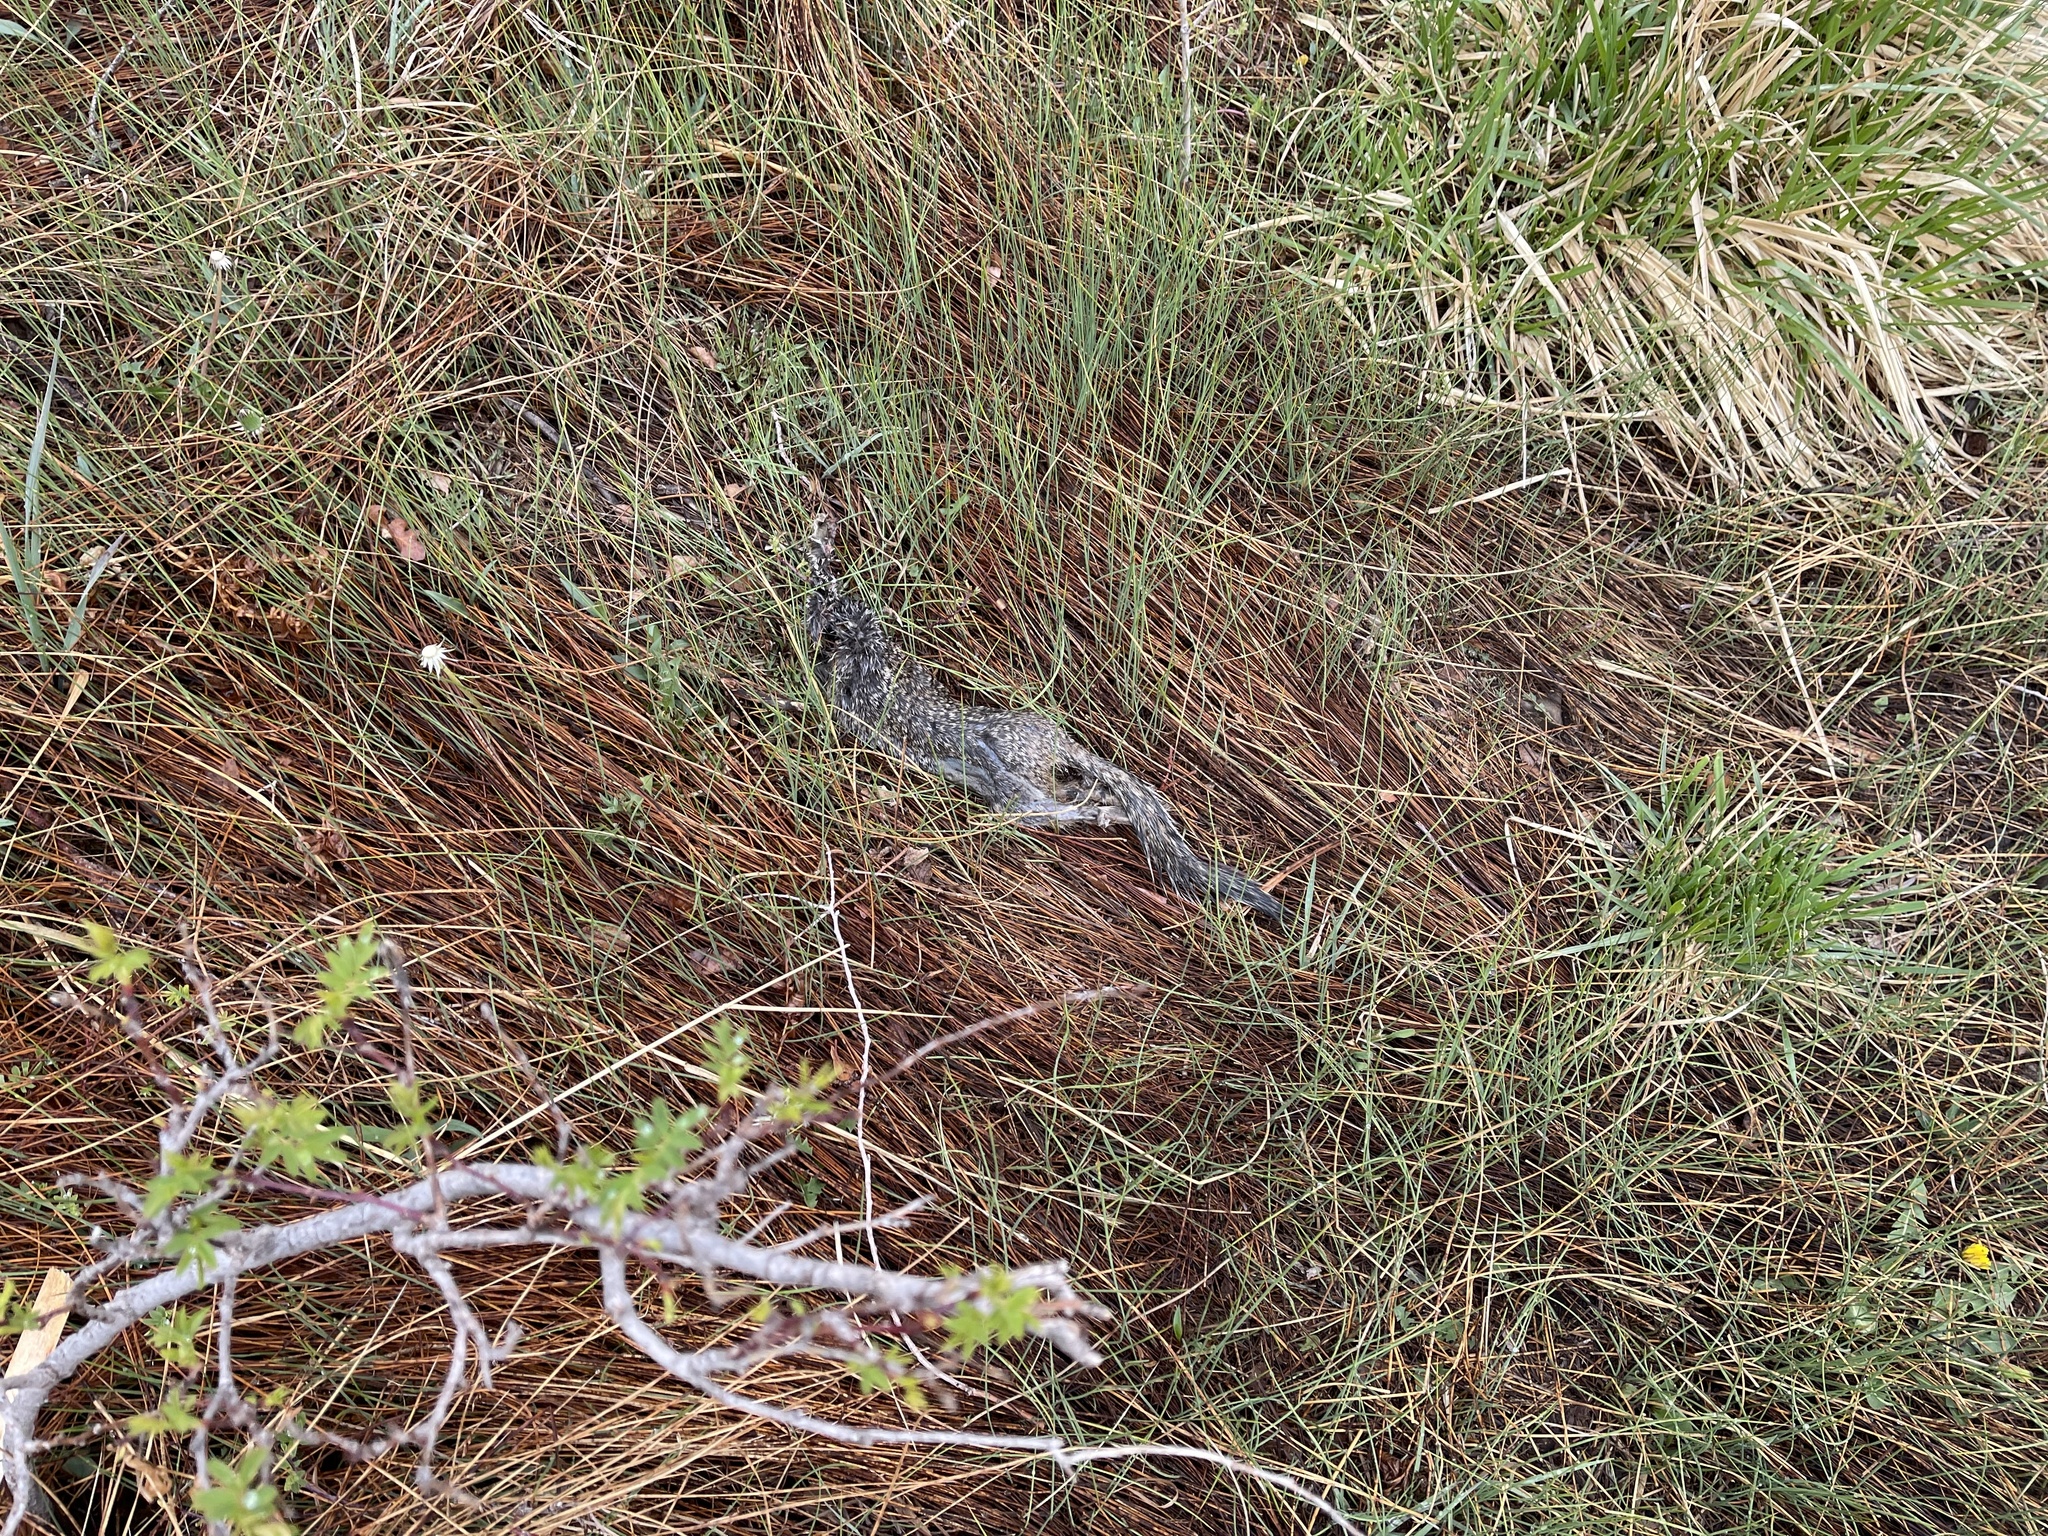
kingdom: Animalia
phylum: Chordata
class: Mammalia
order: Rodentia
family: Sciuridae
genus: Otospermophilus
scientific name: Otospermophilus variegatus
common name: Rock squirrel
